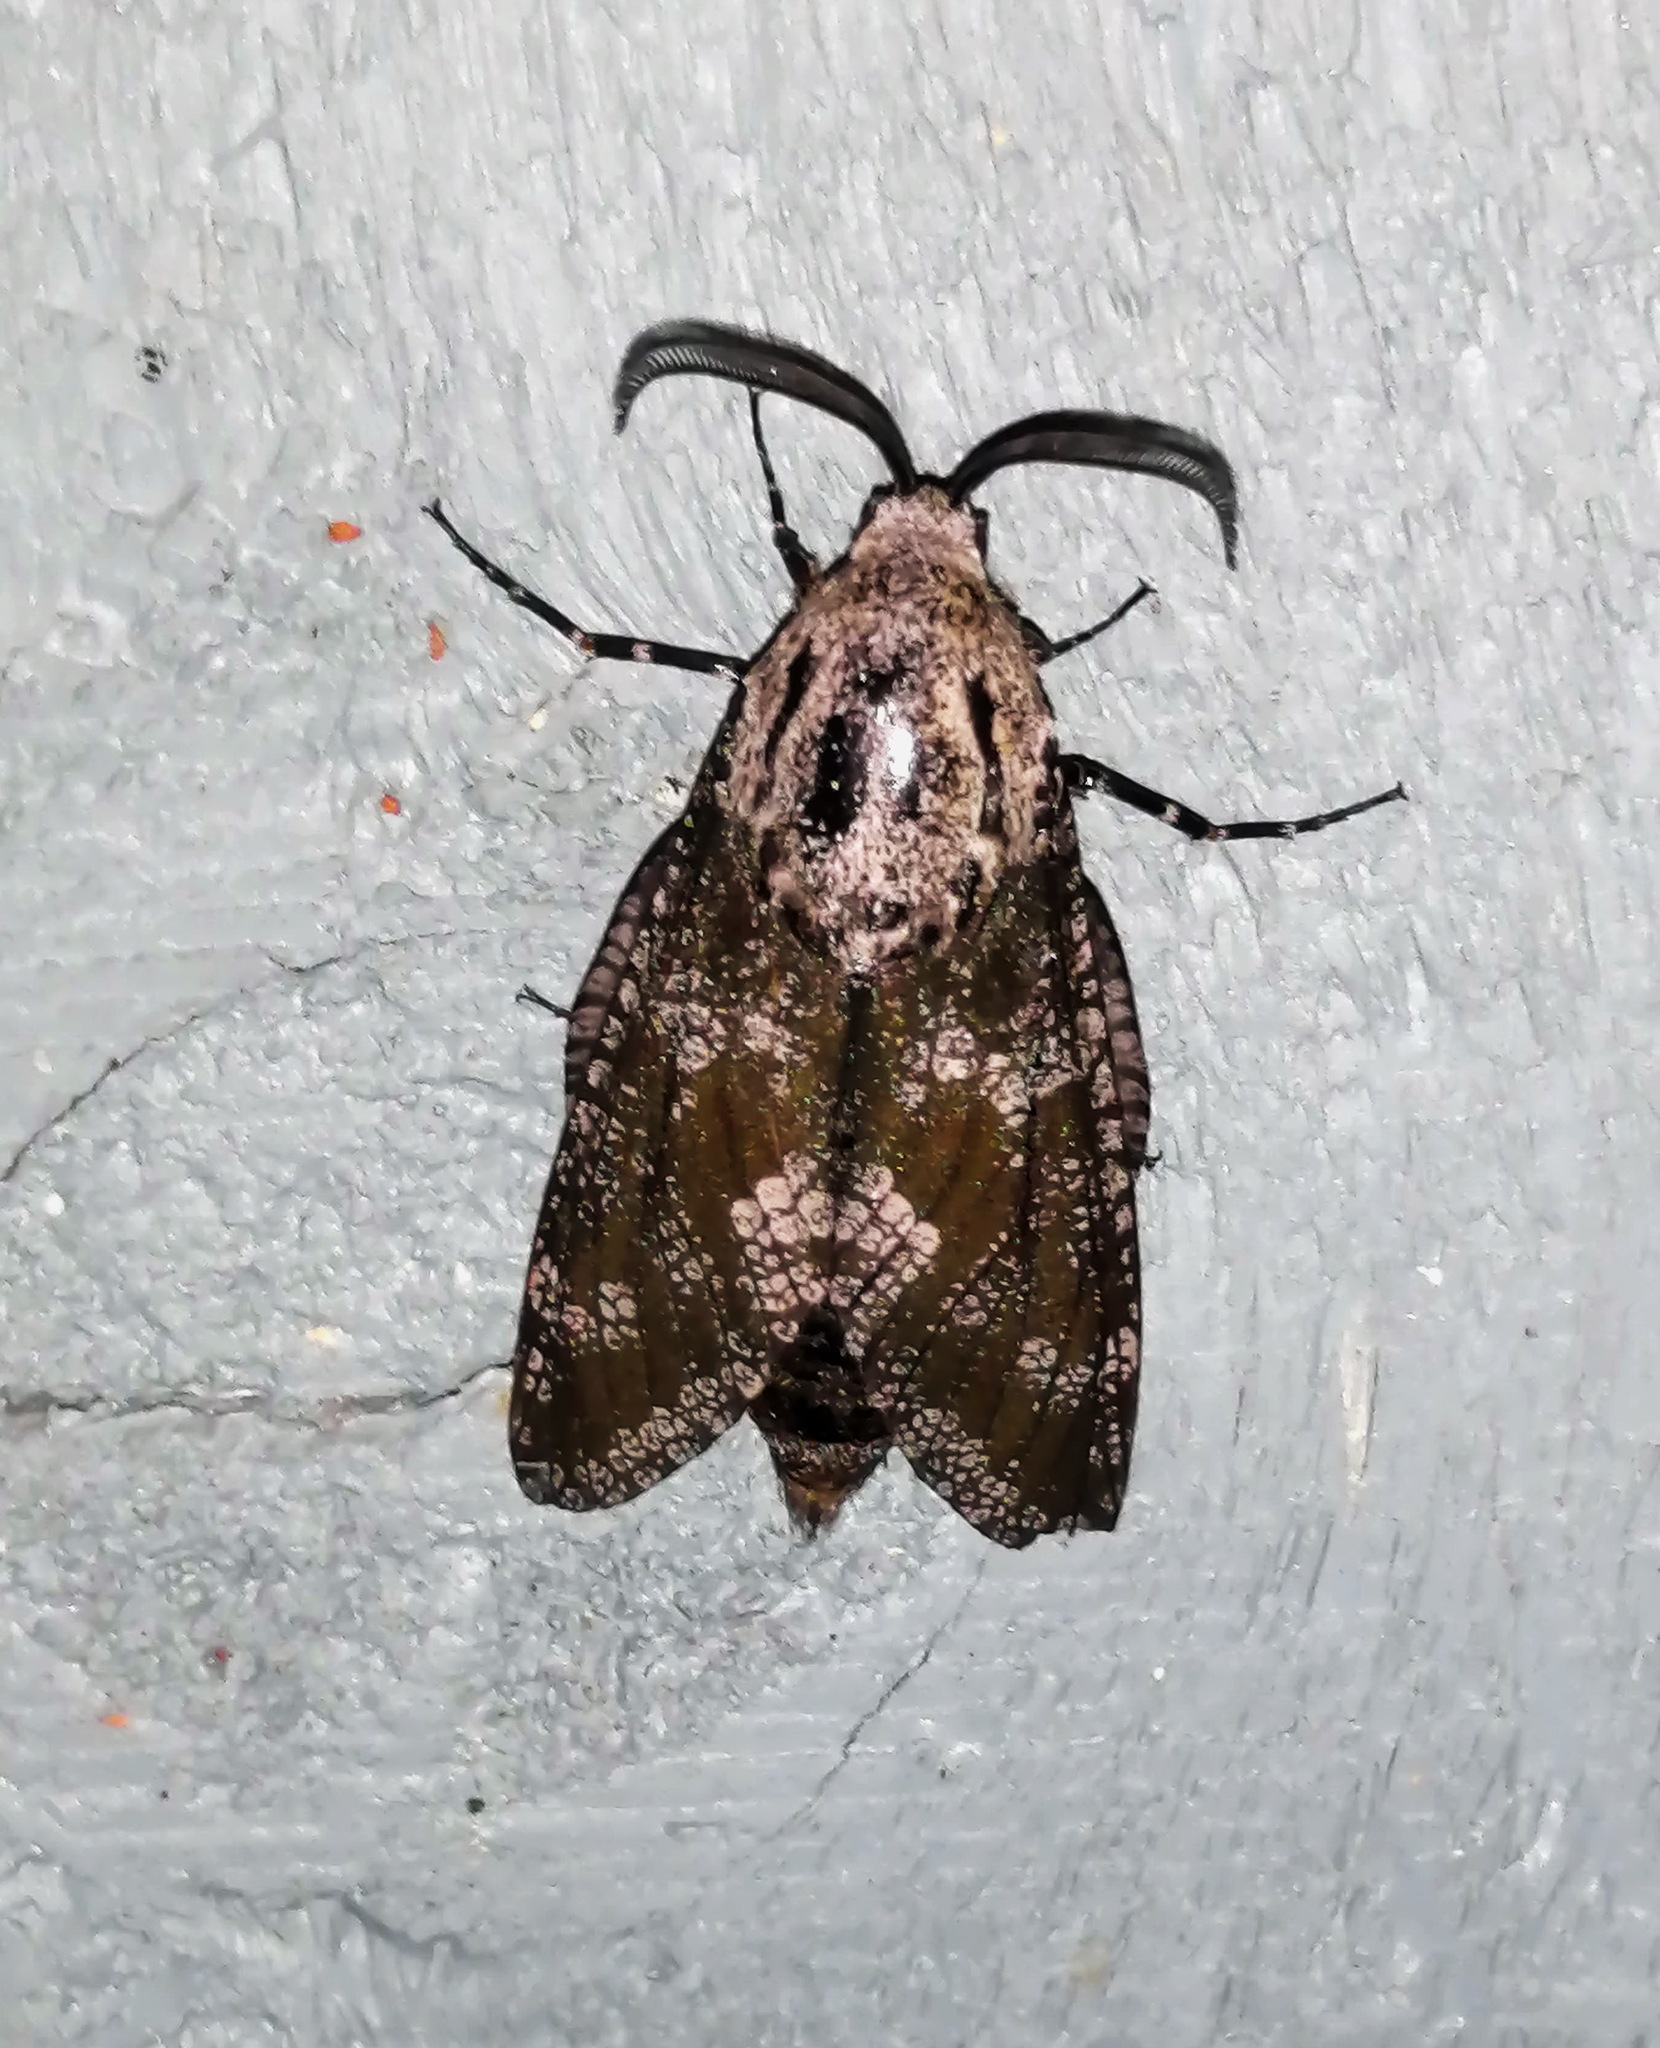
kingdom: Animalia
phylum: Arthropoda
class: Insecta
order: Lepidoptera
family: Cossidae
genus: Prionoxystus
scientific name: Prionoxystus robiniae
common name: Carpenterworm
